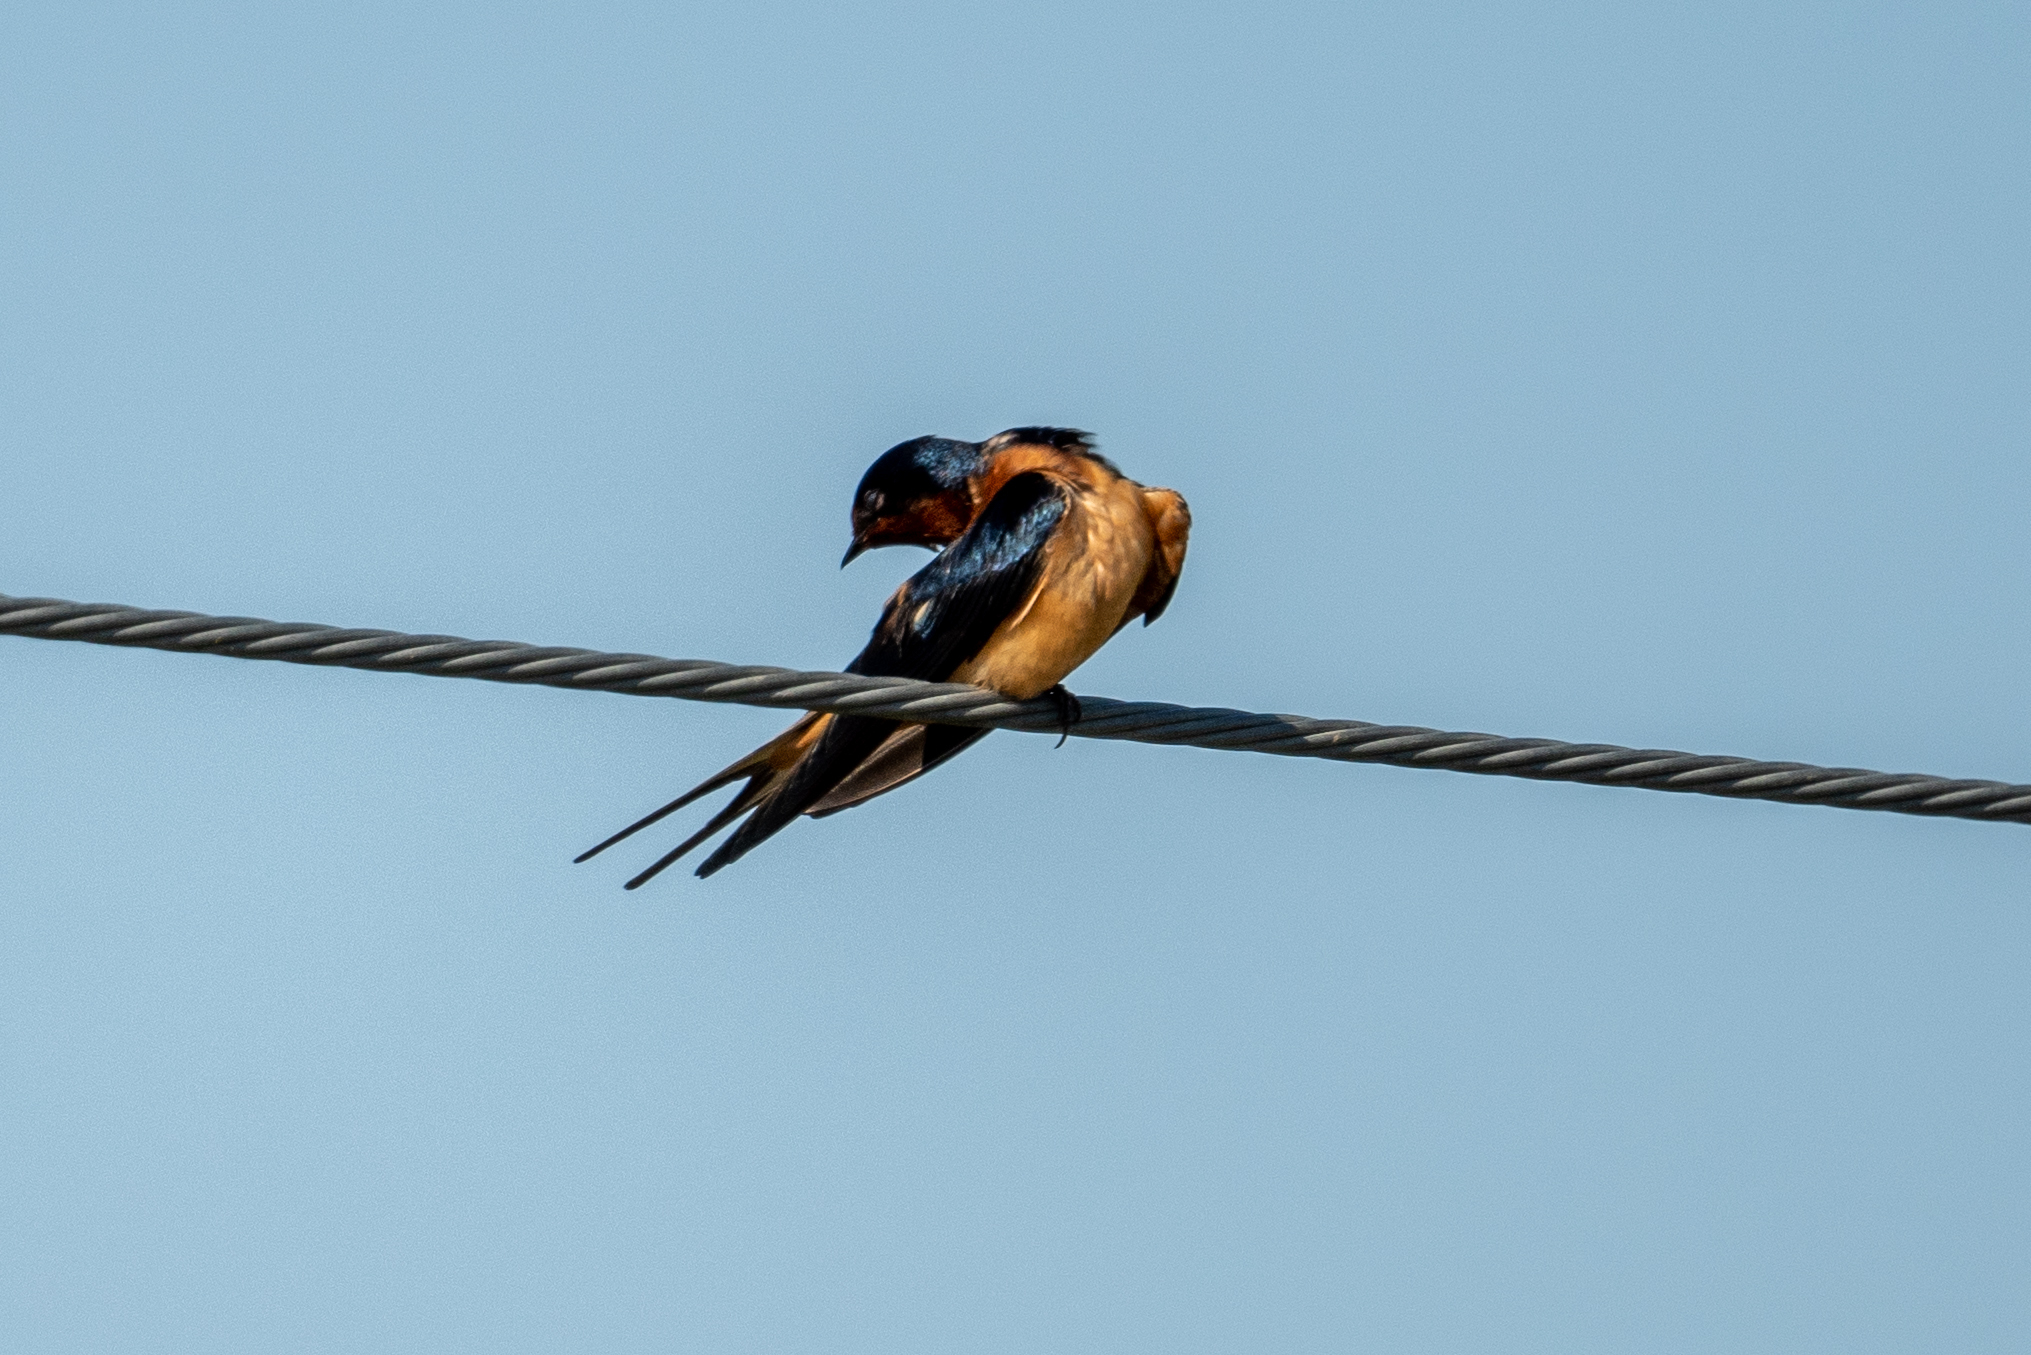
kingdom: Animalia
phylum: Chordata
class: Aves
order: Passeriformes
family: Hirundinidae
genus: Hirundo
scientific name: Hirundo rustica
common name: Barn swallow
